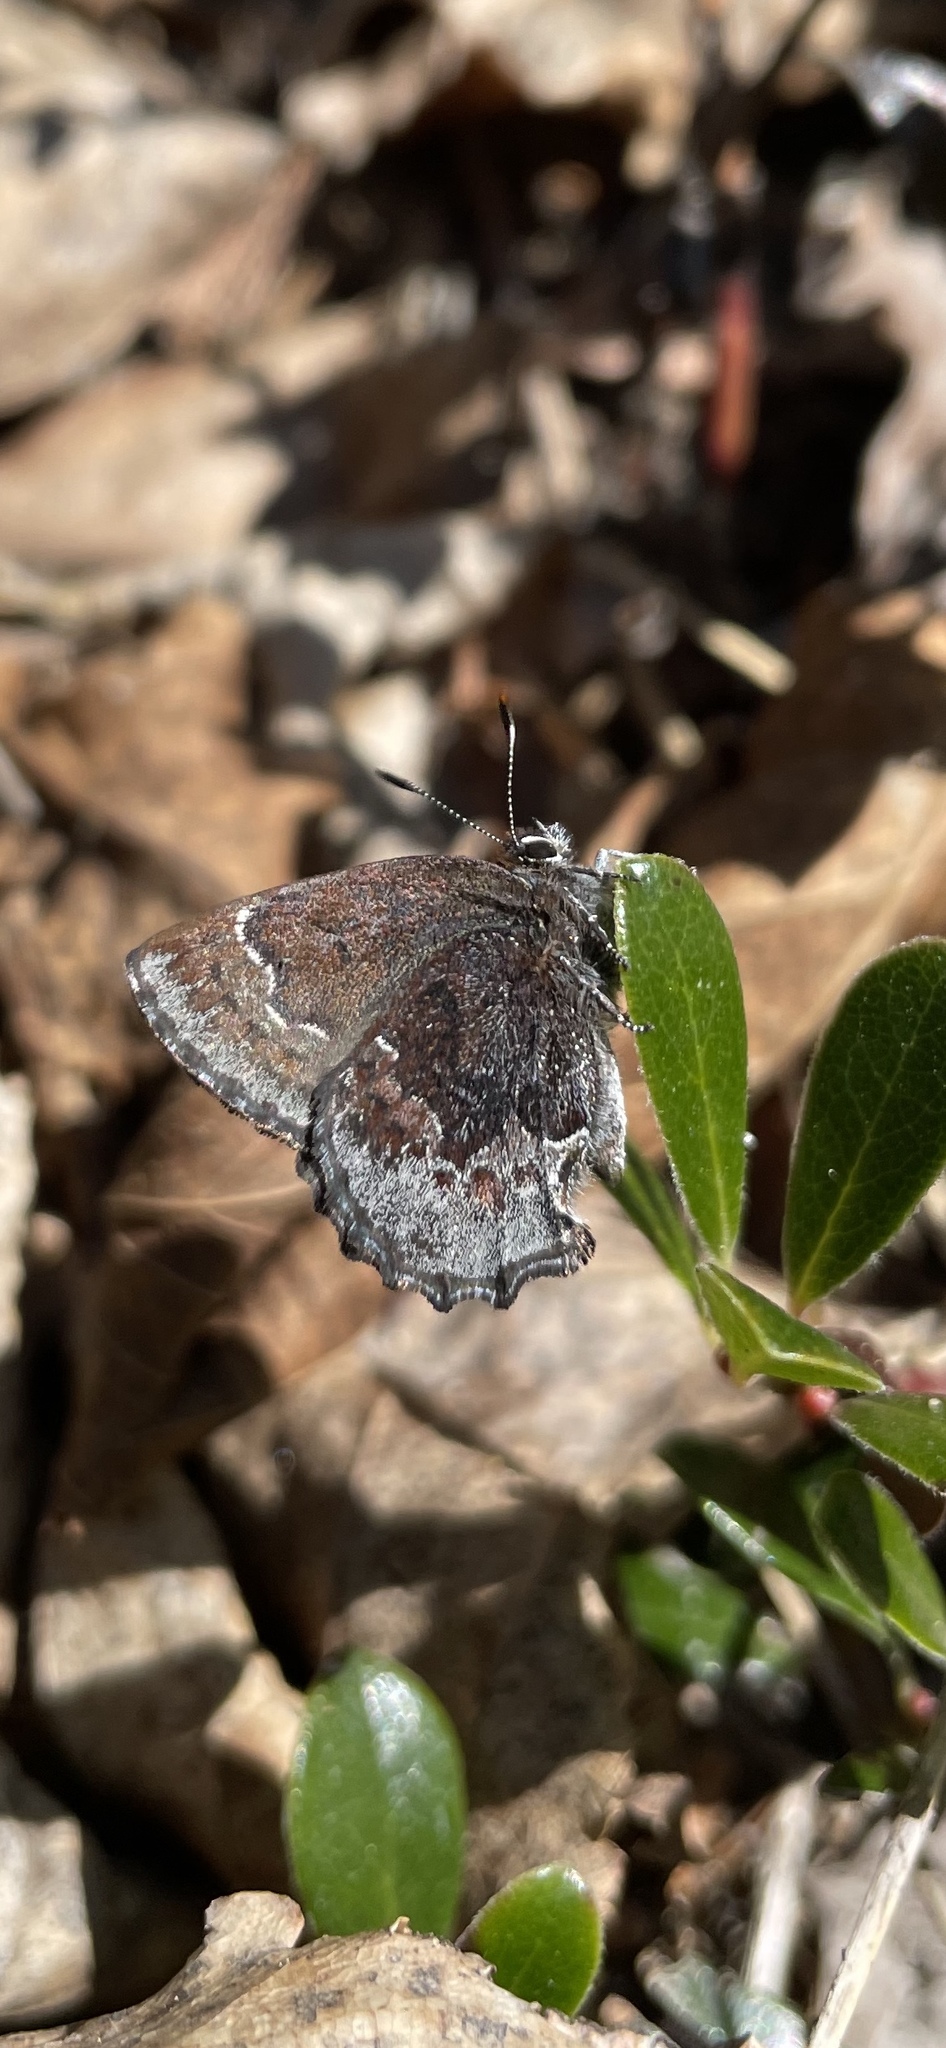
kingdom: Animalia
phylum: Arthropoda
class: Insecta
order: Lepidoptera
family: Lycaenidae
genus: Callophrys
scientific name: Callophrys polios
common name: Hoary elfin
